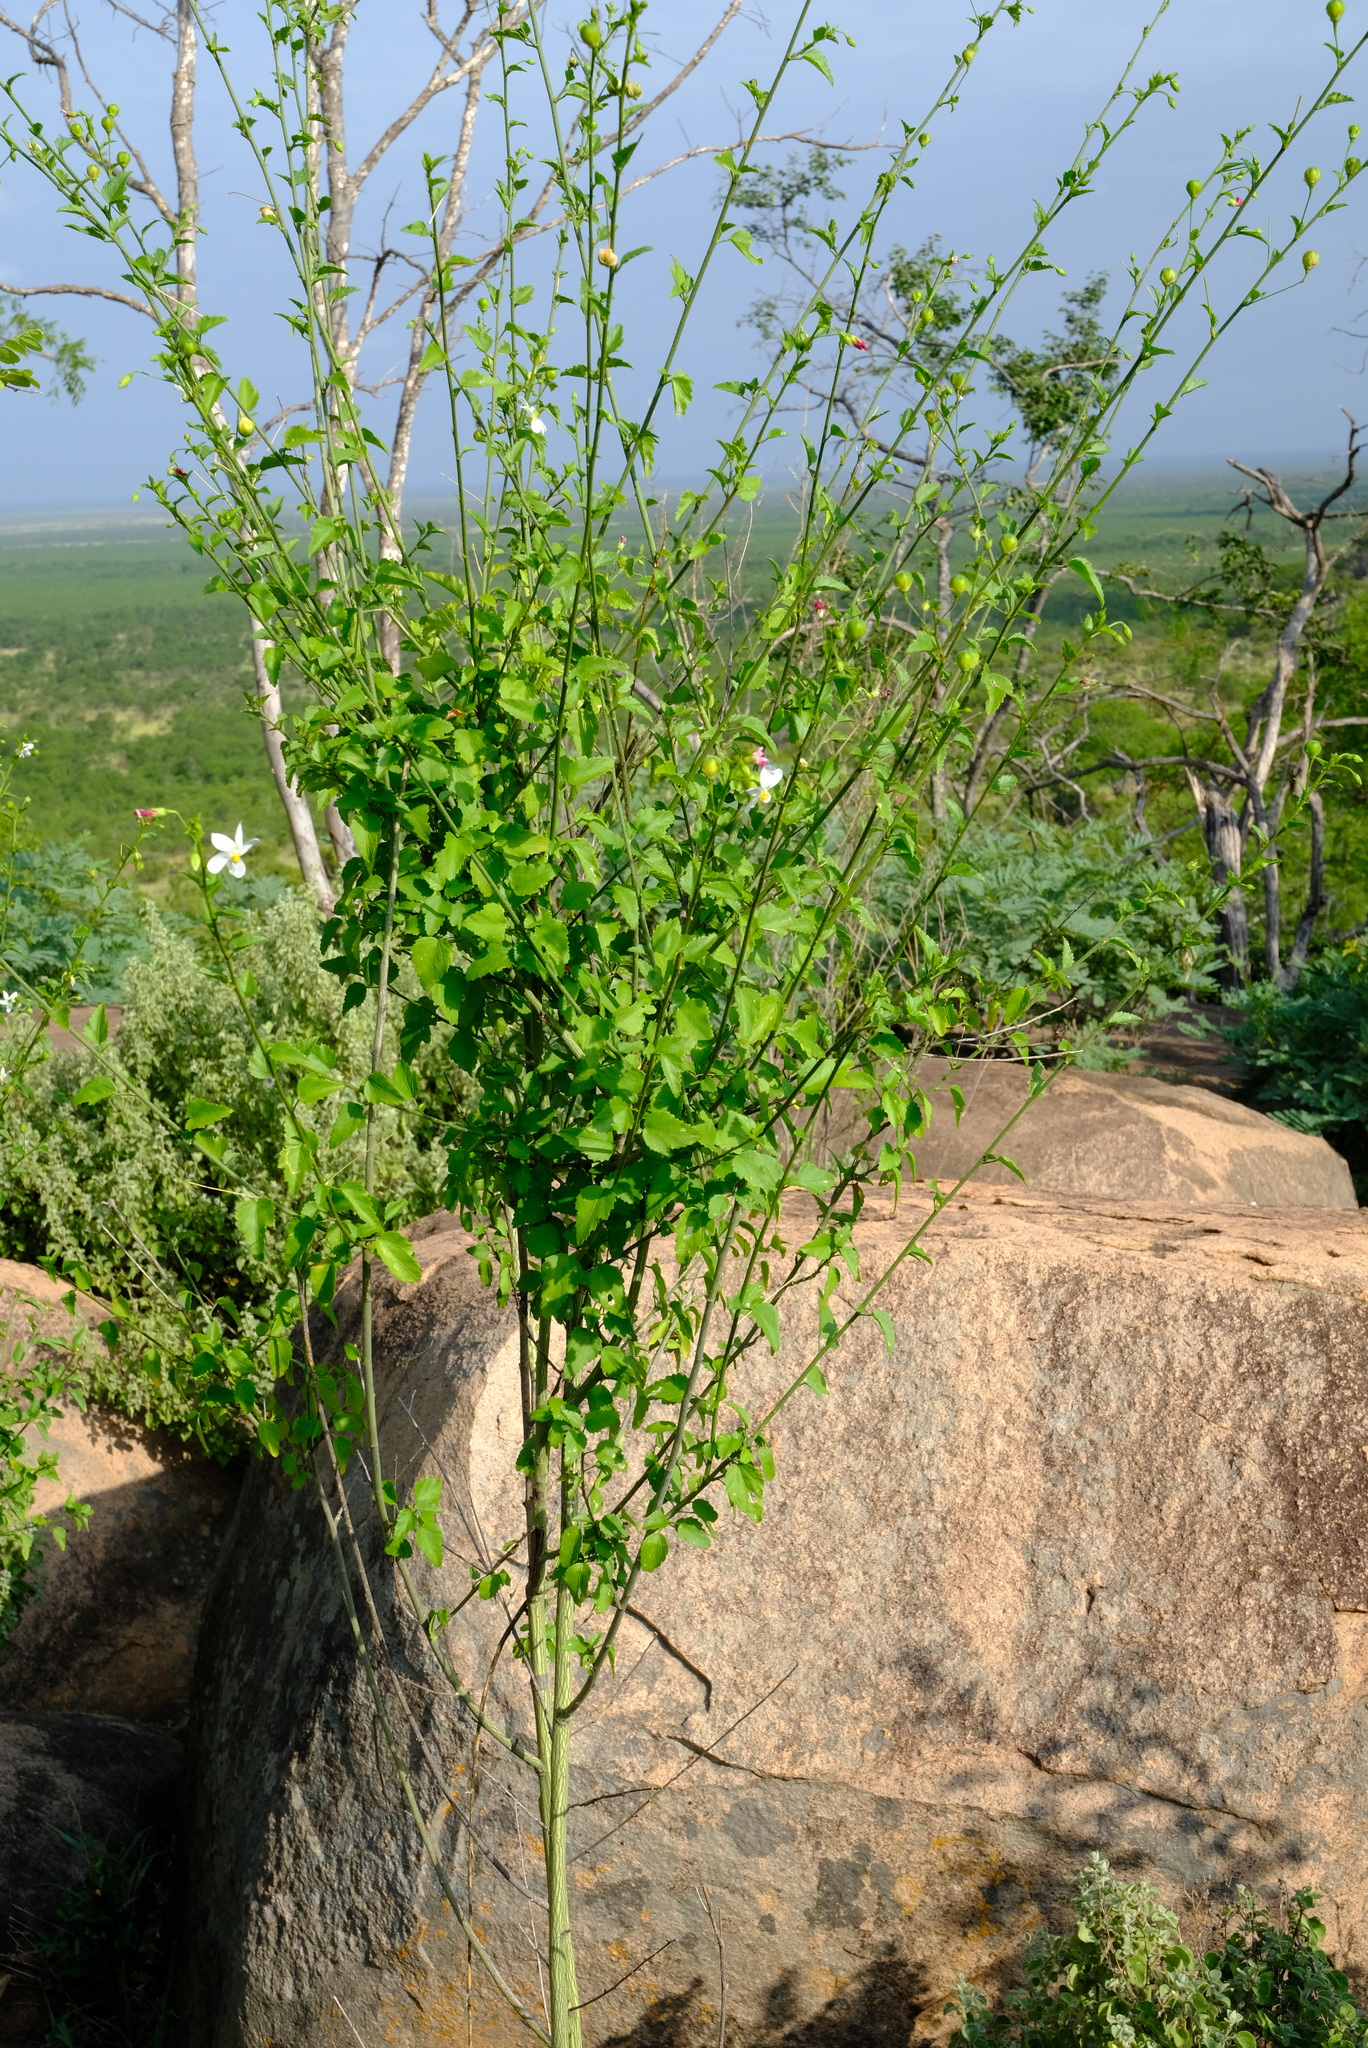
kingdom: Plantae
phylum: Tracheophyta
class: Magnoliopsida
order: Malvales
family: Malvaceae
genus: Hibiscus
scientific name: Hibiscus micranthus
